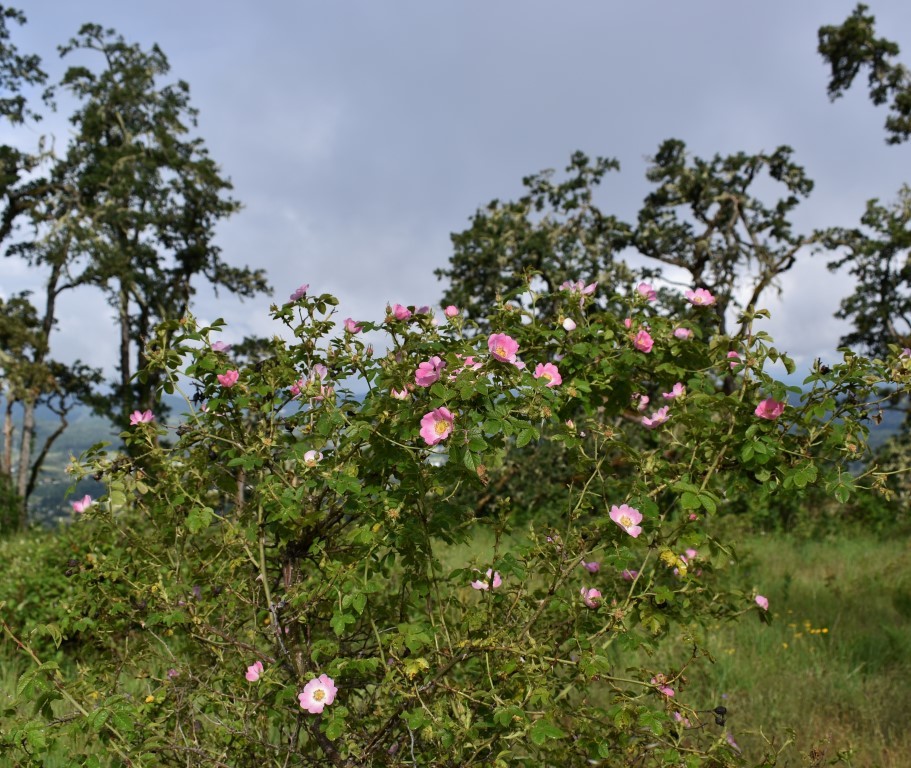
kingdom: Plantae
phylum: Tracheophyta
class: Magnoliopsida
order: Rosales
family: Rosaceae
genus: Rosa
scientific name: Rosa rubiginosa
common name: Sweet-briar
